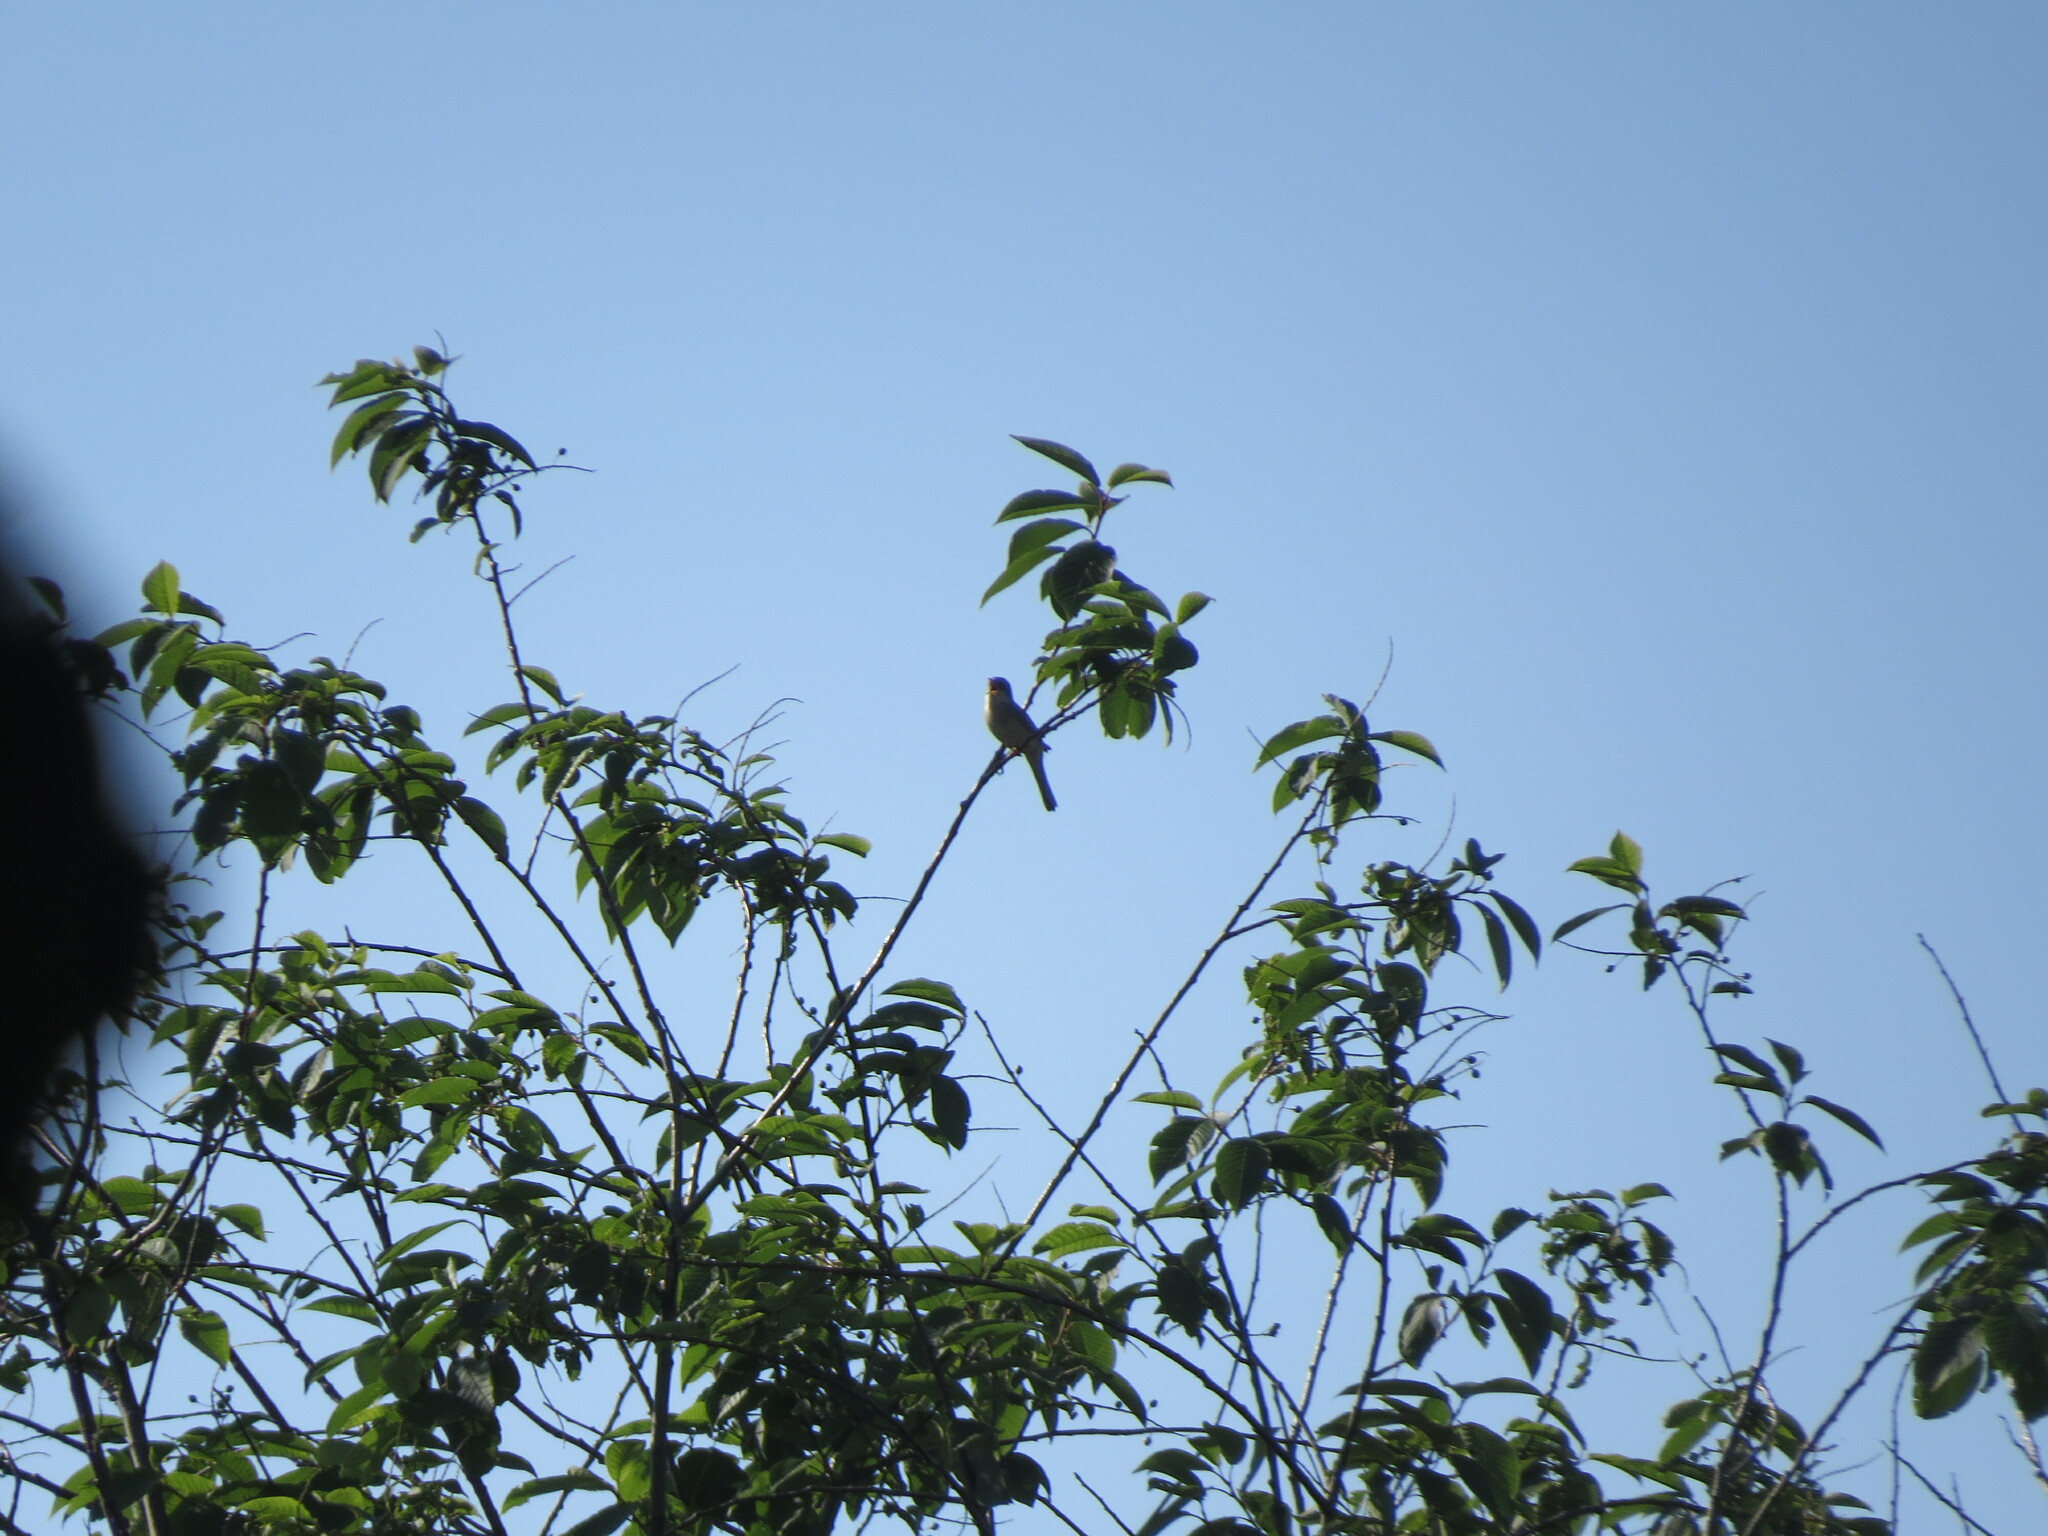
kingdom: Animalia
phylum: Chordata
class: Aves
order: Passeriformes
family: Sylviidae
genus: Sylvia
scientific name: Sylvia communis
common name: Common whitethroat
